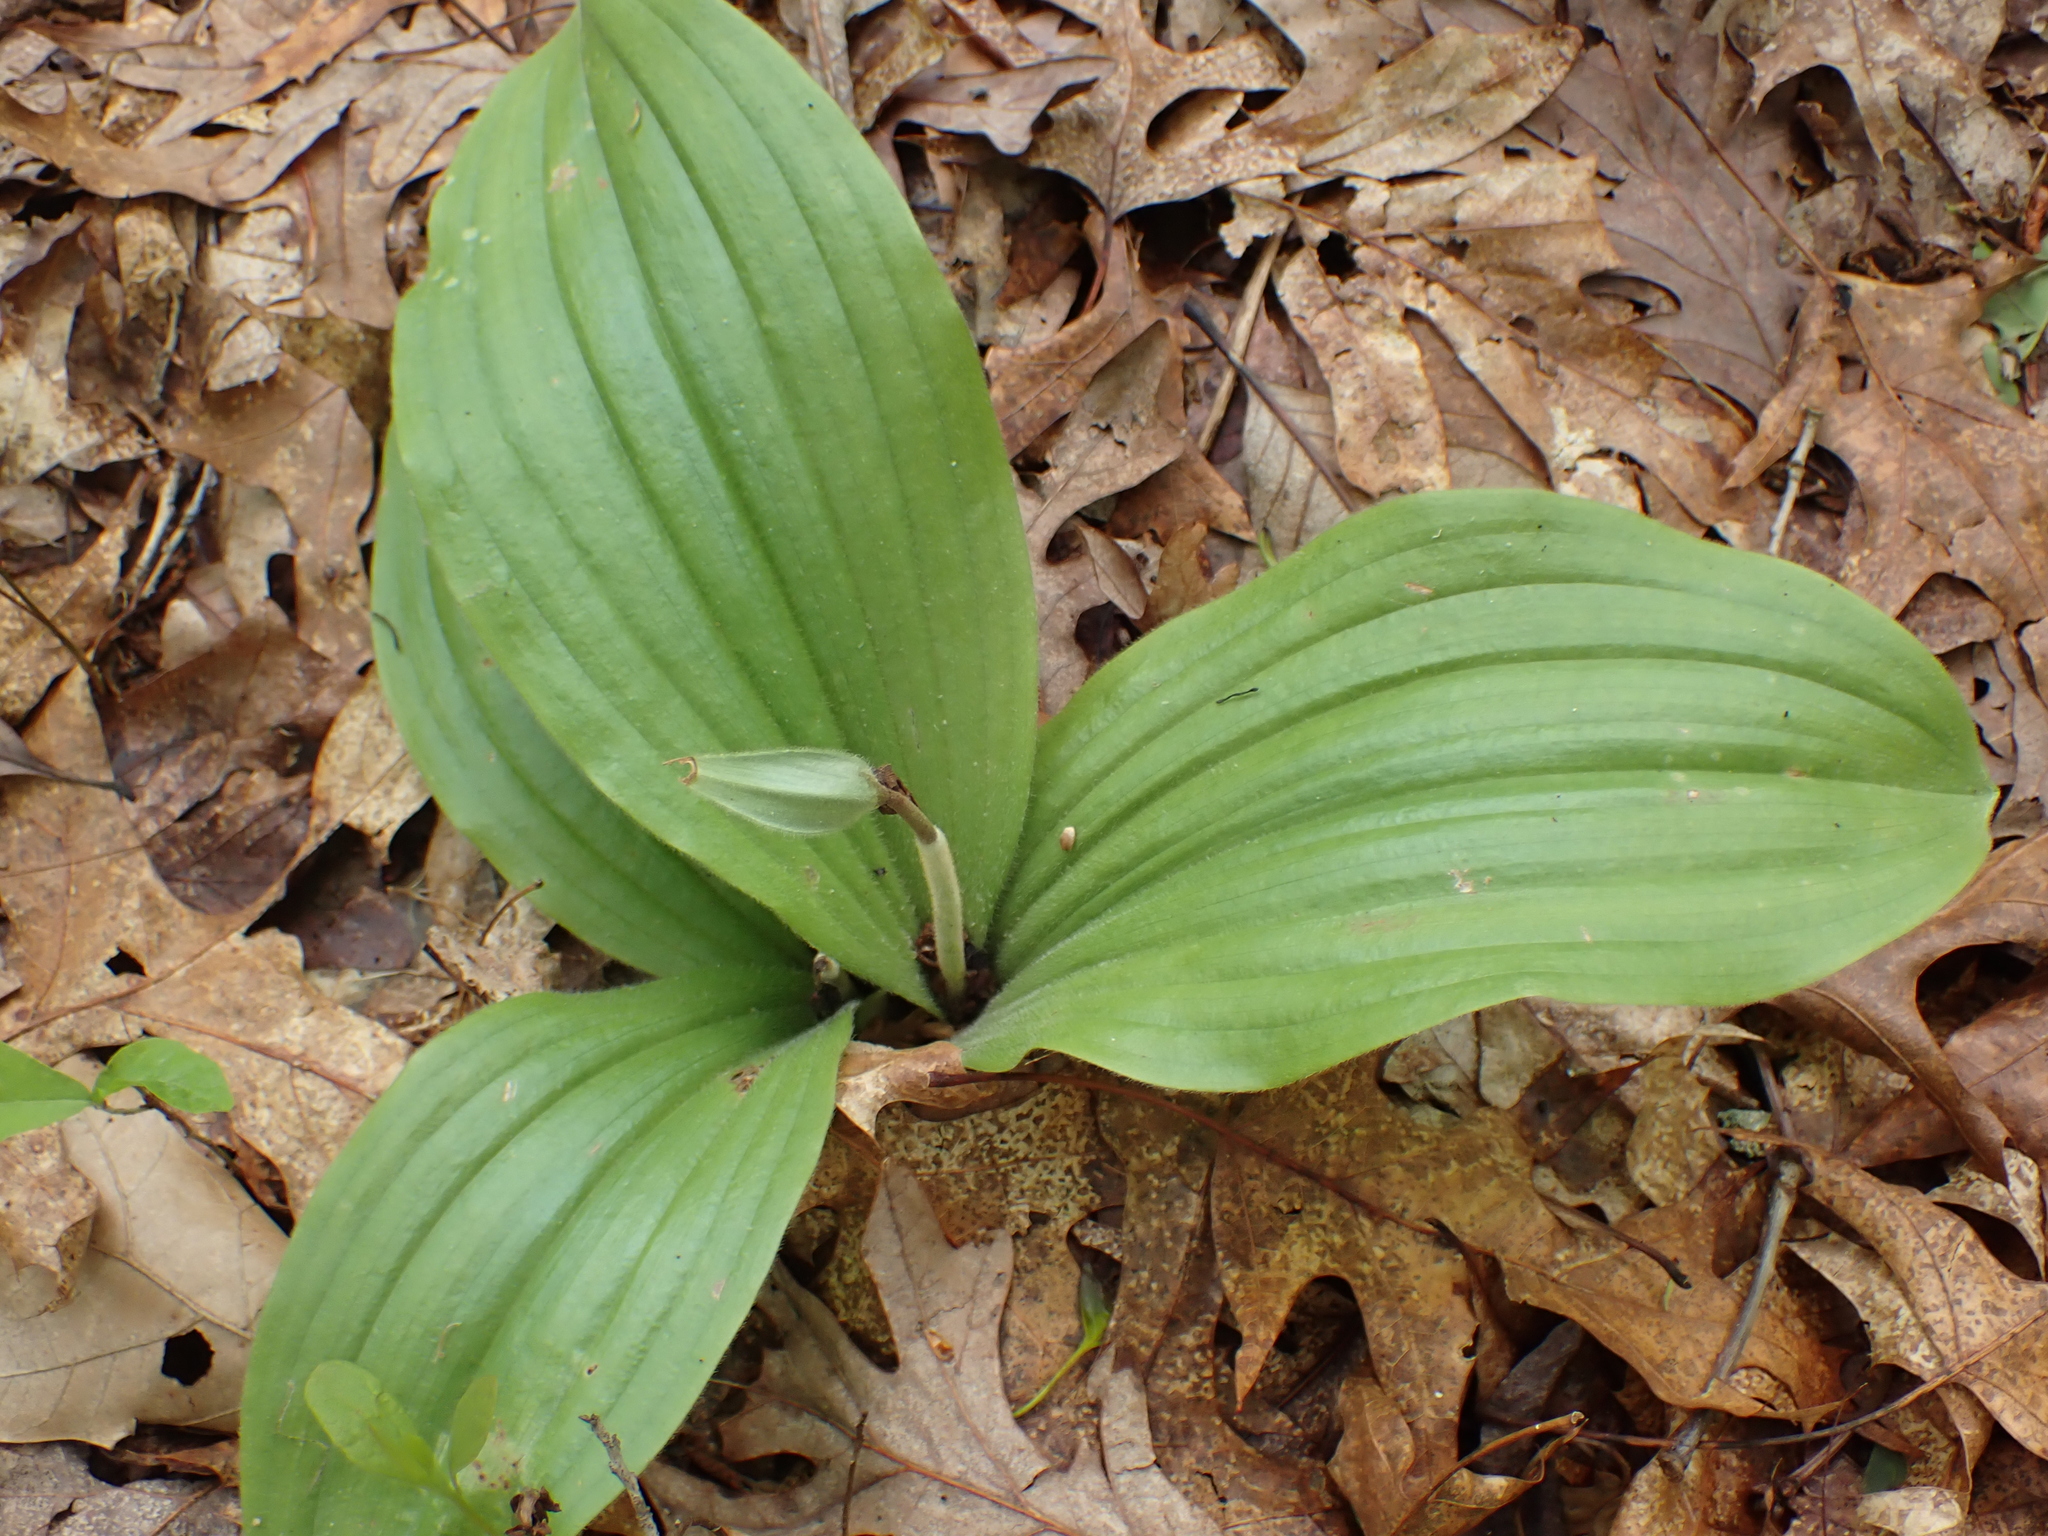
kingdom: Plantae
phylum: Tracheophyta
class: Liliopsida
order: Asparagales
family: Orchidaceae
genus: Cypripedium
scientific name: Cypripedium acaule
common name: Pink lady's-slipper
